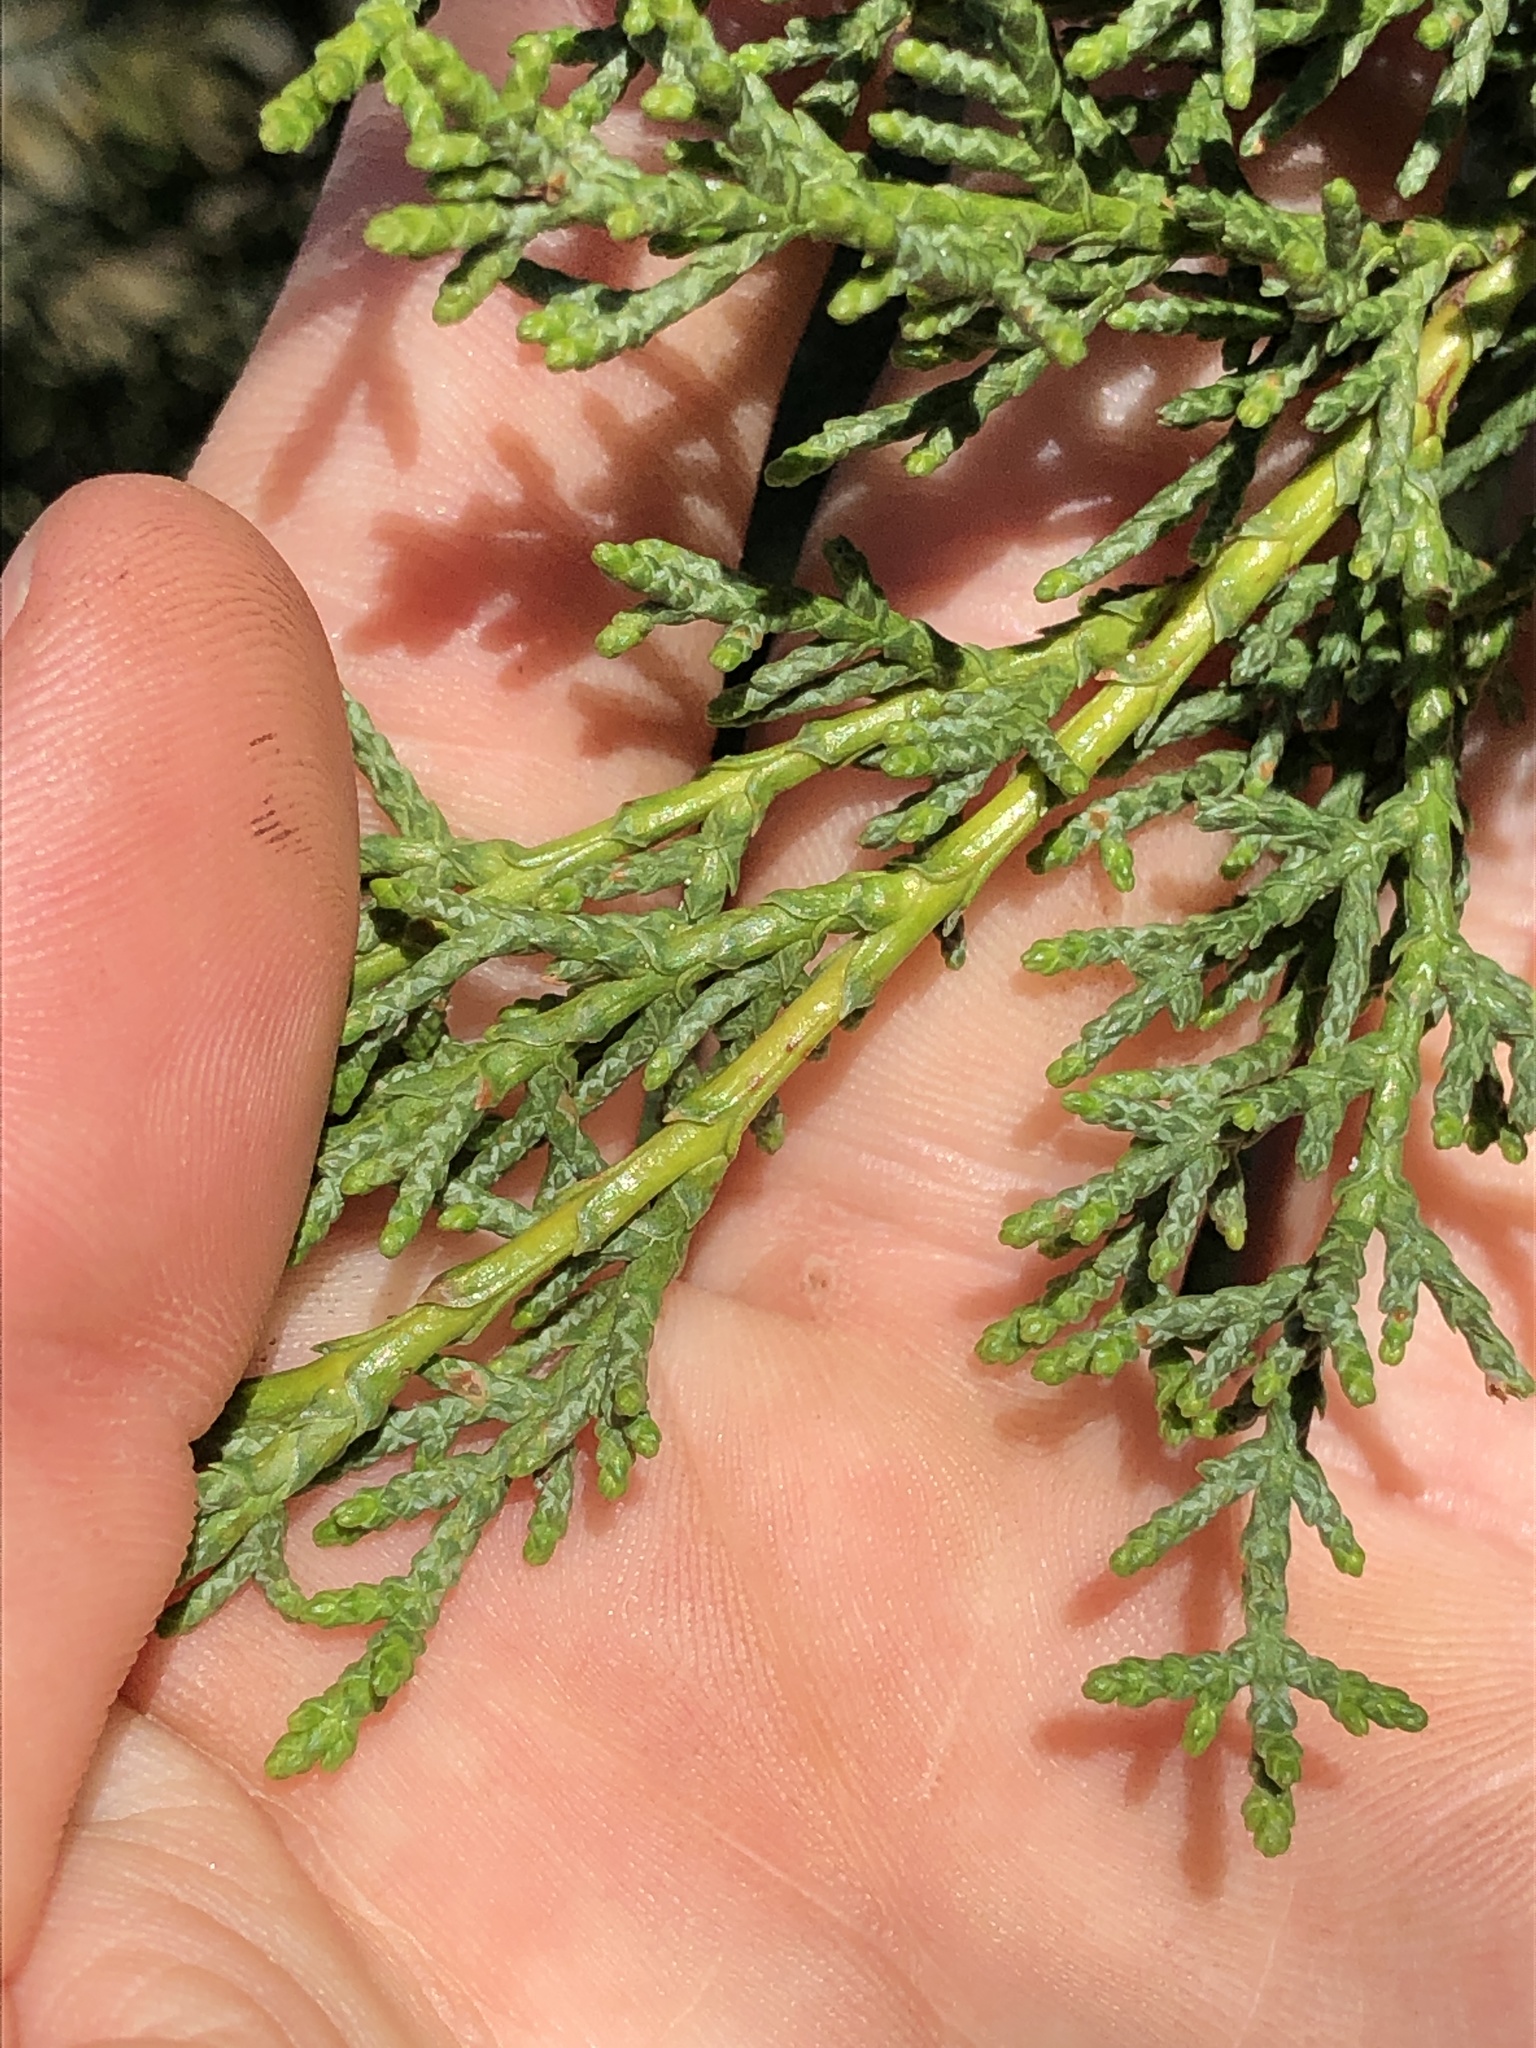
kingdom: Plantae
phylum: Tracheophyta
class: Pinopsida
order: Pinales
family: Cupressaceae
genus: Cupressus
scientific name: Cupressus goveniana
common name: Gowen cypress
